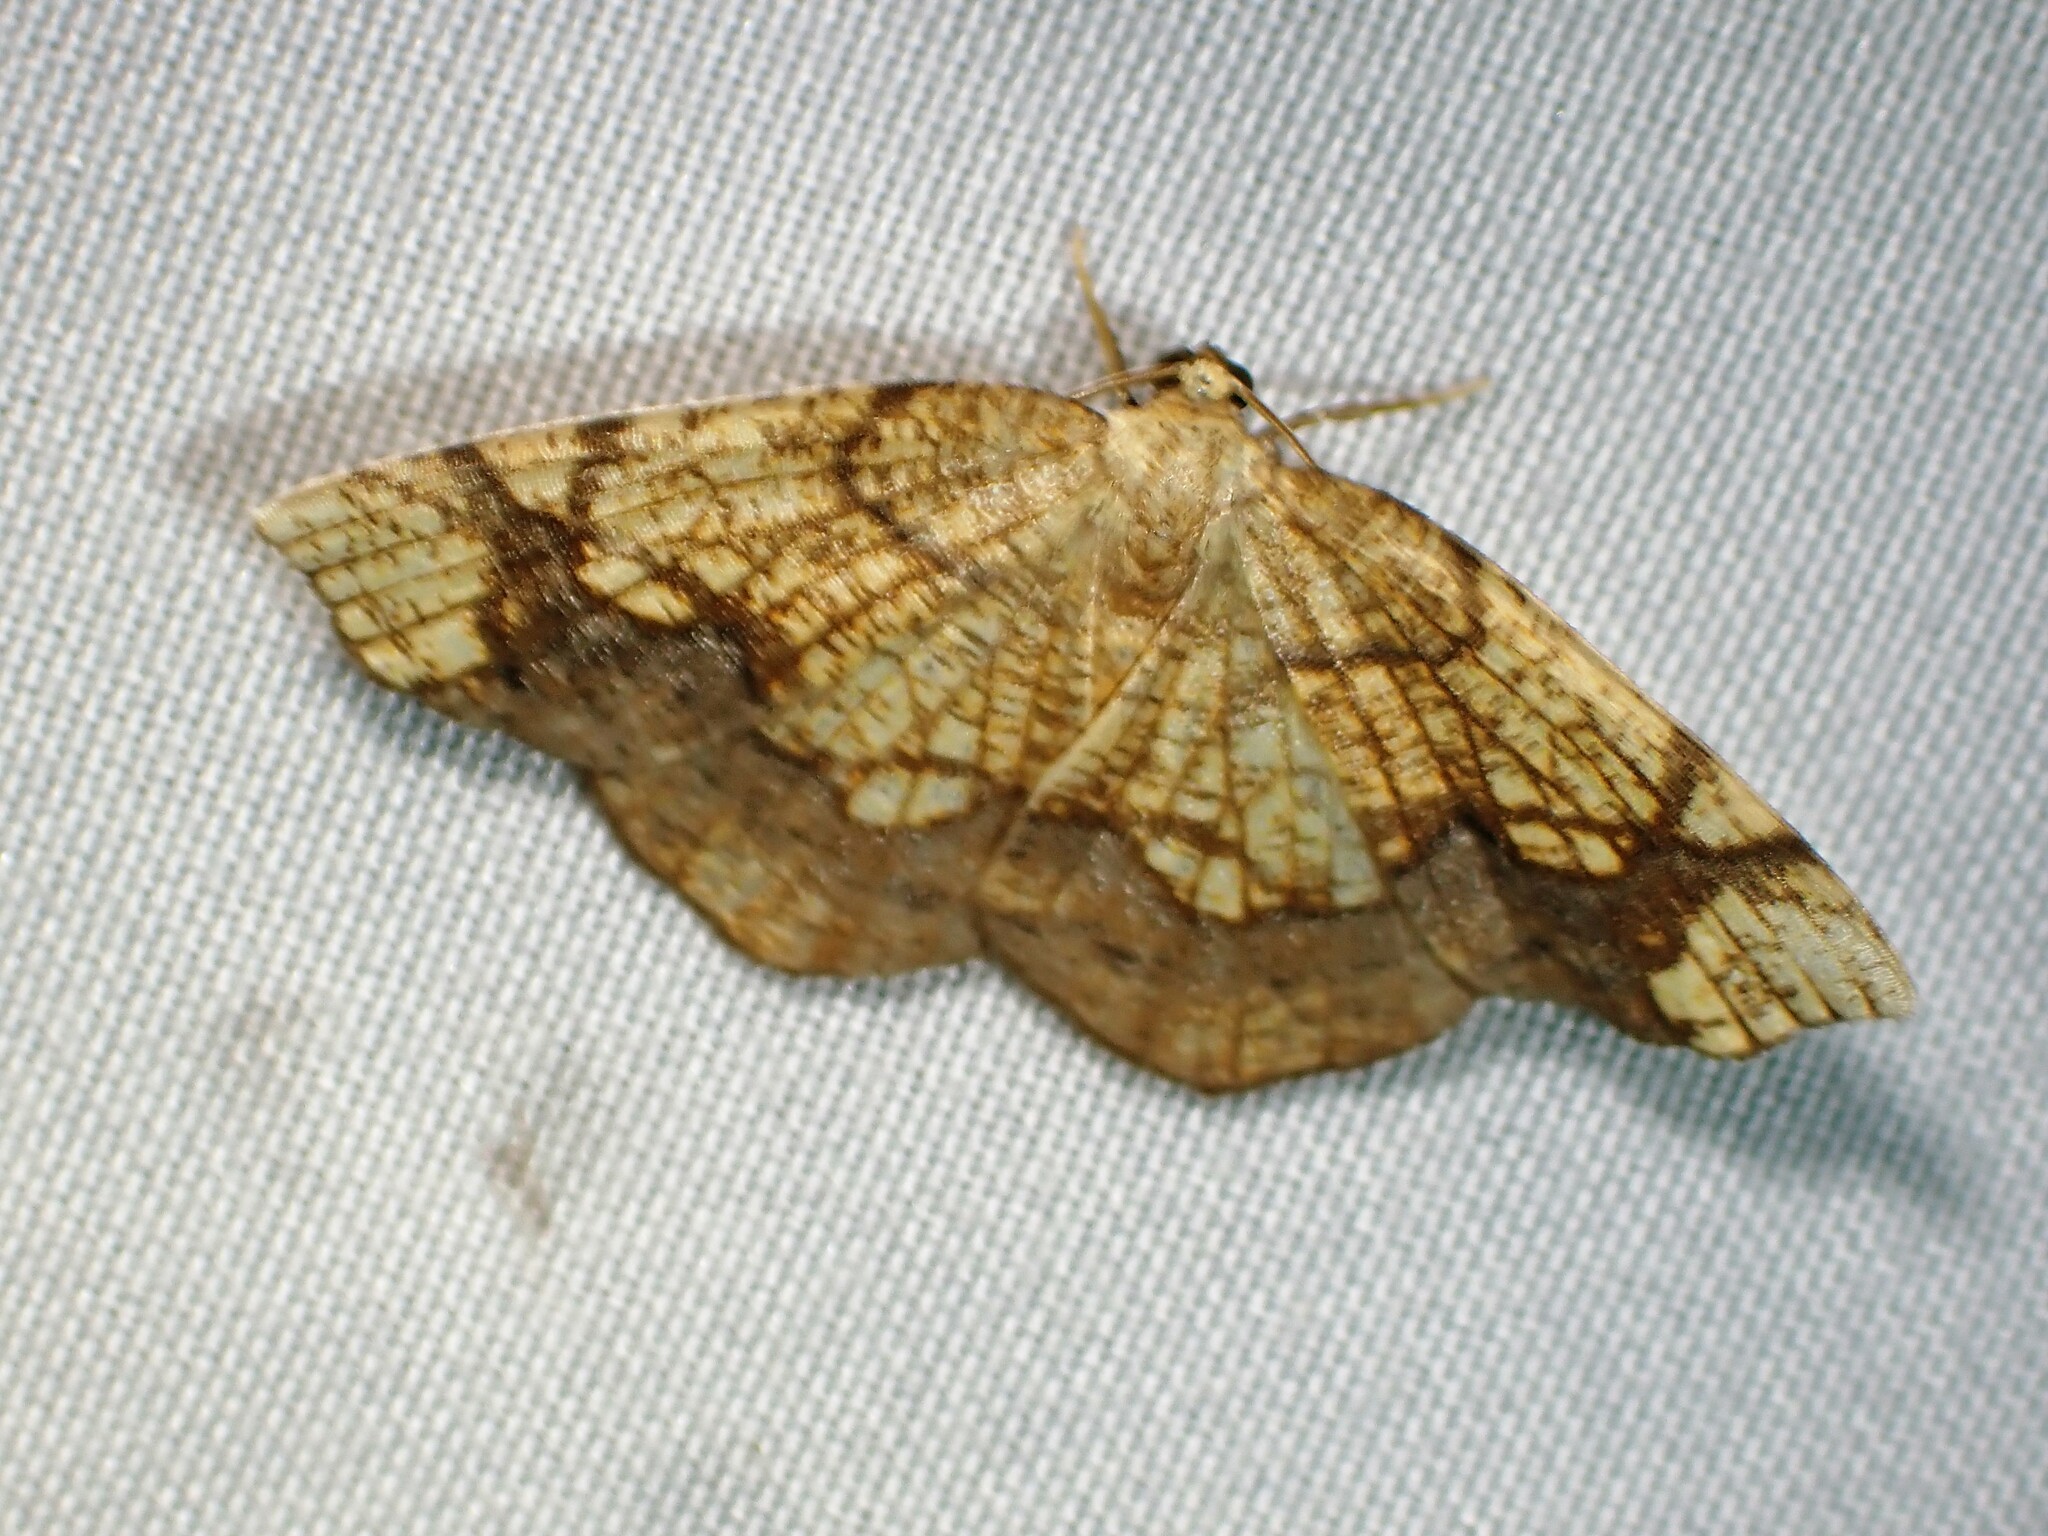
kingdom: Animalia
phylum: Arthropoda
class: Insecta
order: Lepidoptera
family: Geometridae
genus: Nematocampa
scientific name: Nematocampa resistaria
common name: Horned spanworm moth
